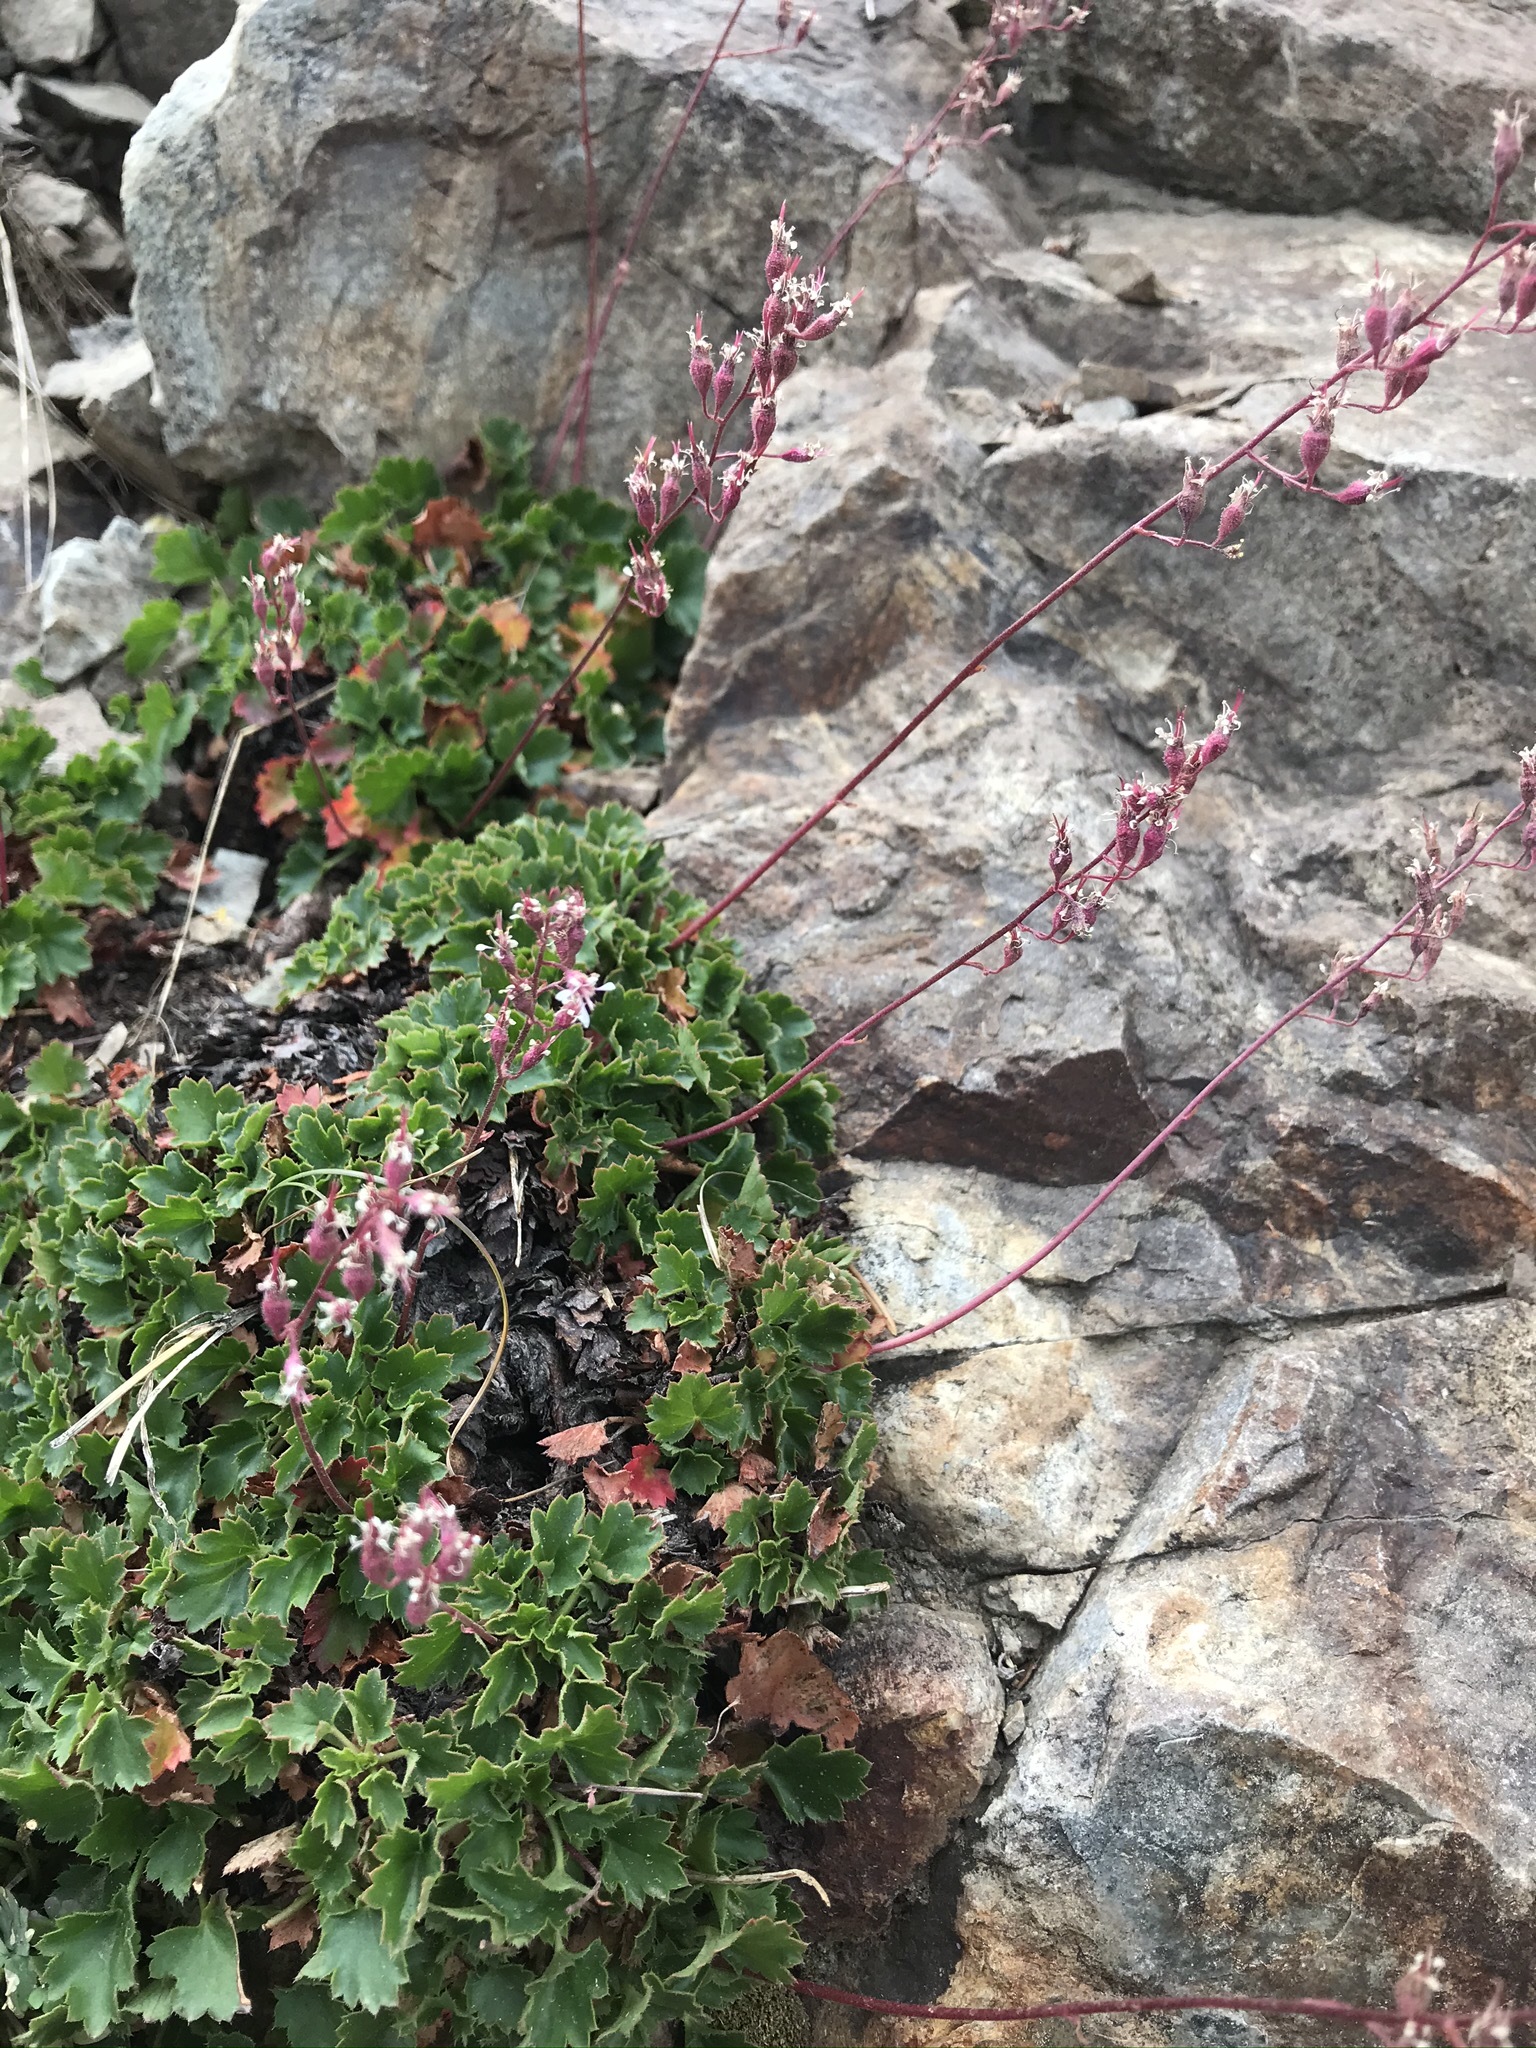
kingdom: Plantae
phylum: Tracheophyta
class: Magnoliopsida
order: Saxifragales
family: Saxifragaceae
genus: Heuchera
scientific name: Heuchera rubescens
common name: Jack-o'the-rocks
